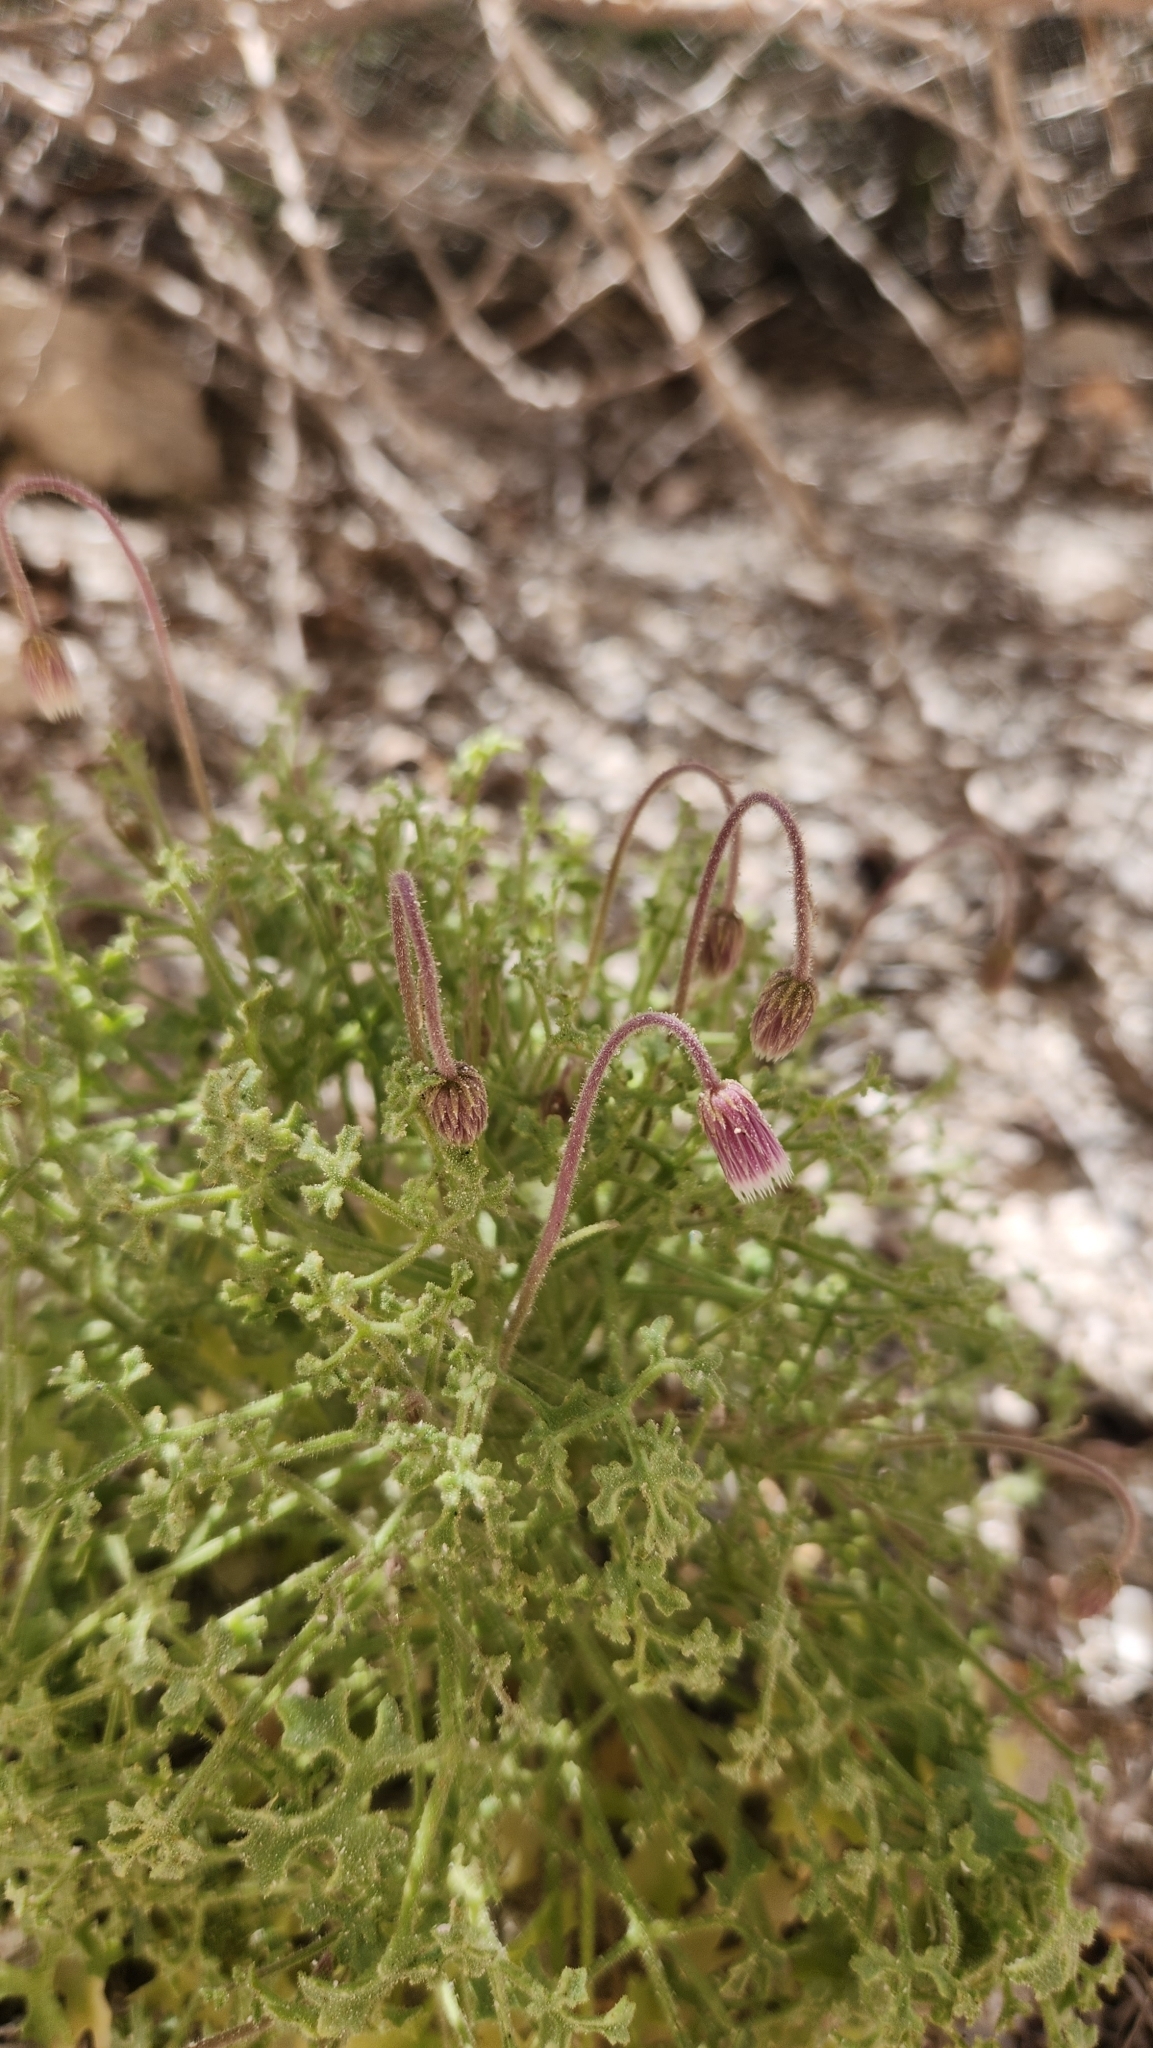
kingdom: Plantae
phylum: Tracheophyta
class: Magnoliopsida
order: Asterales
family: Asteraceae
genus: Hofmeisteria
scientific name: Hofmeisteria fasciculata
